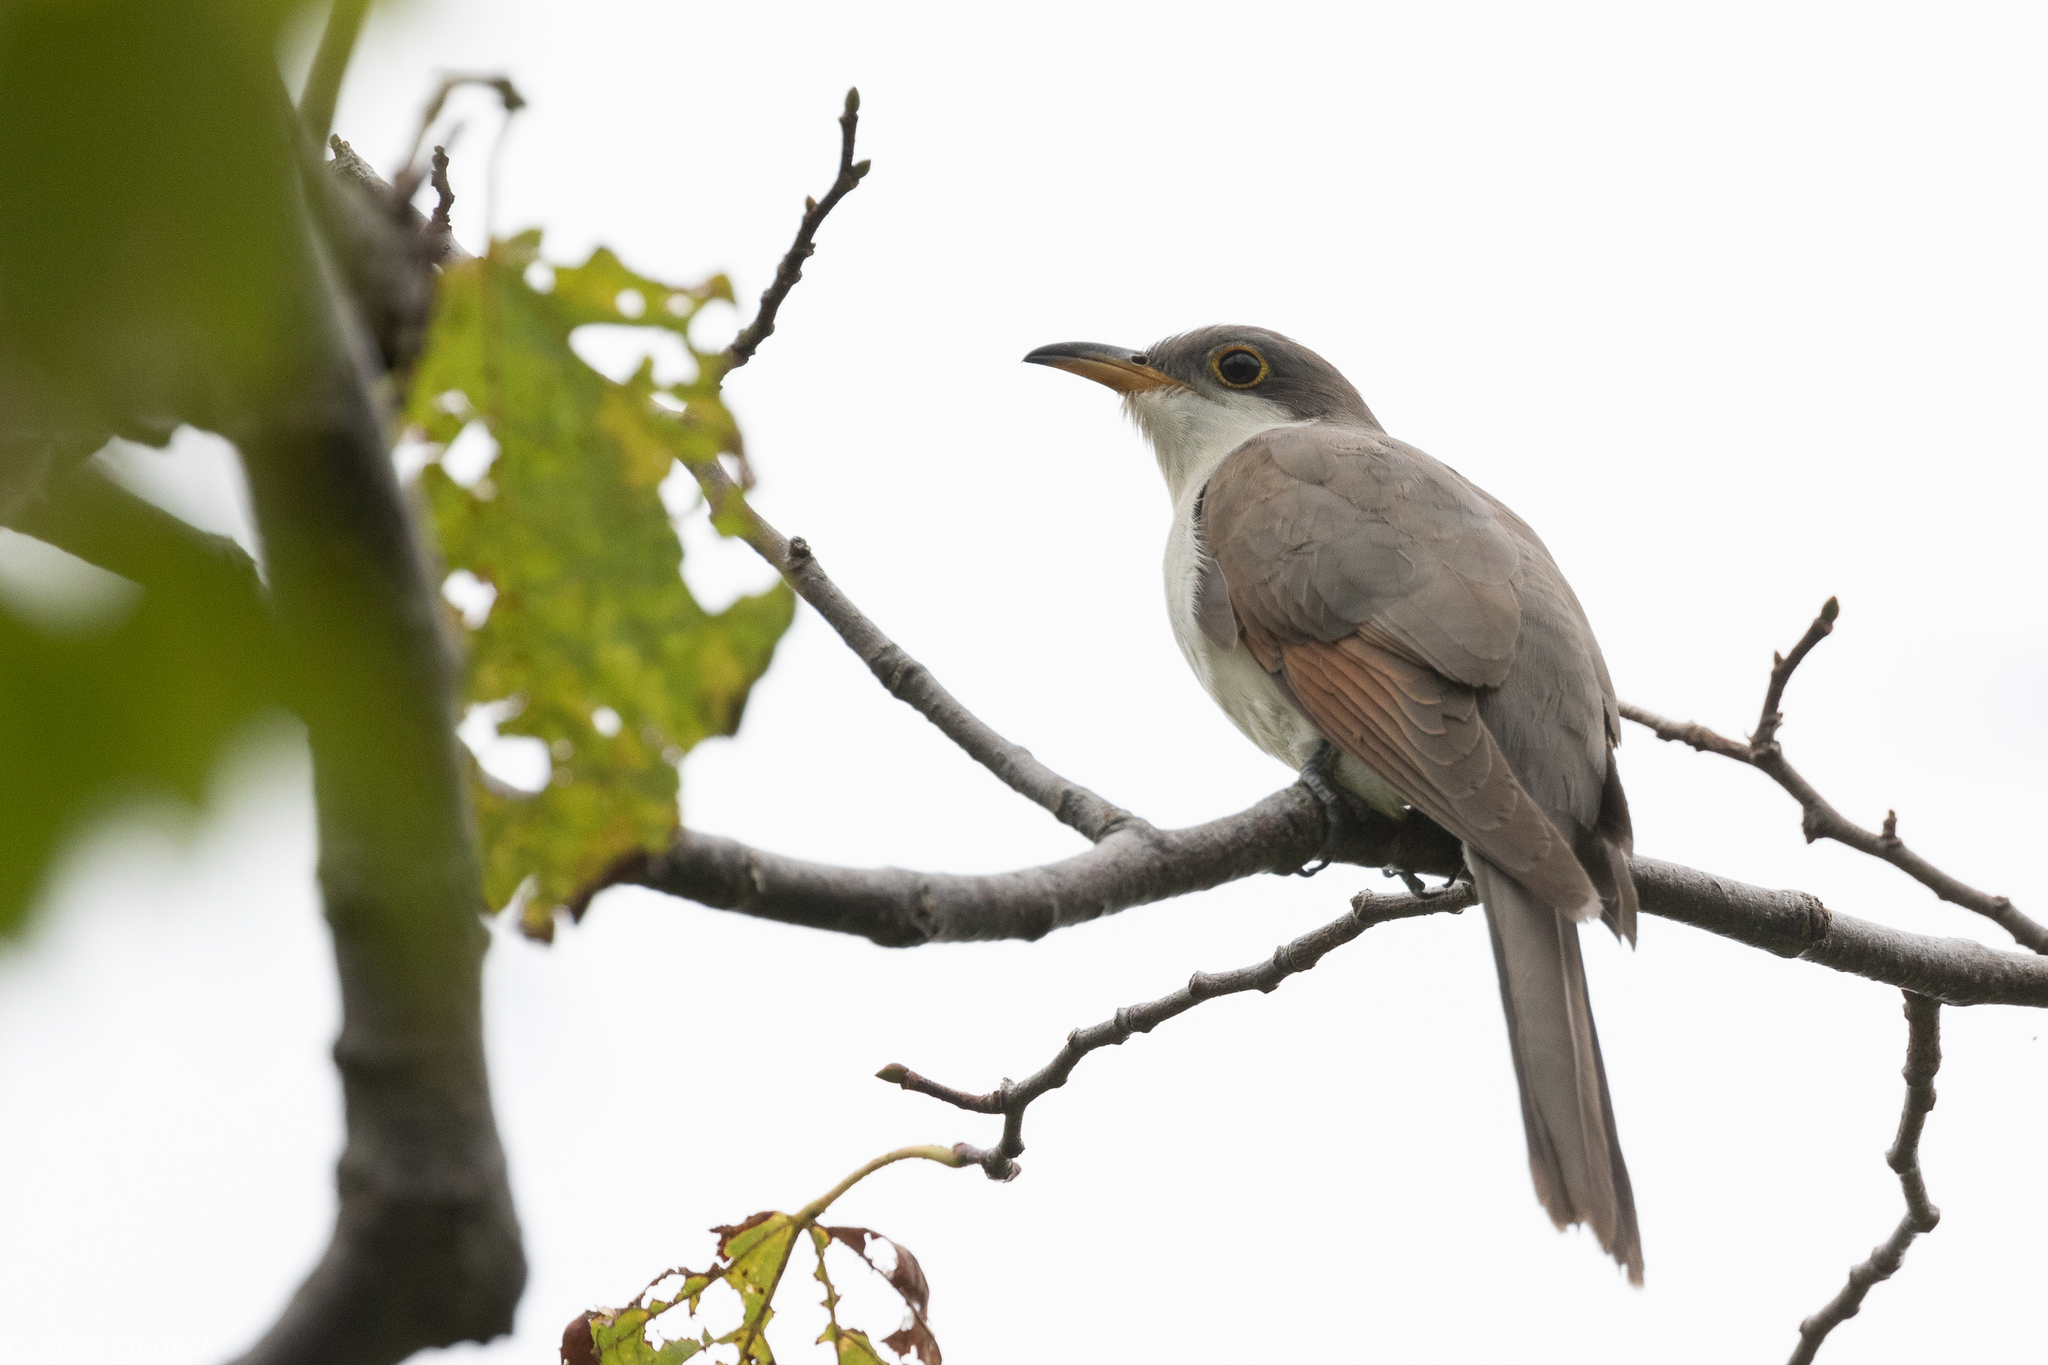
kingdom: Animalia
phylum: Chordata
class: Aves
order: Cuculiformes
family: Cuculidae
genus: Coccyzus
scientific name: Coccyzus americanus
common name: Yellow-billed cuckoo
